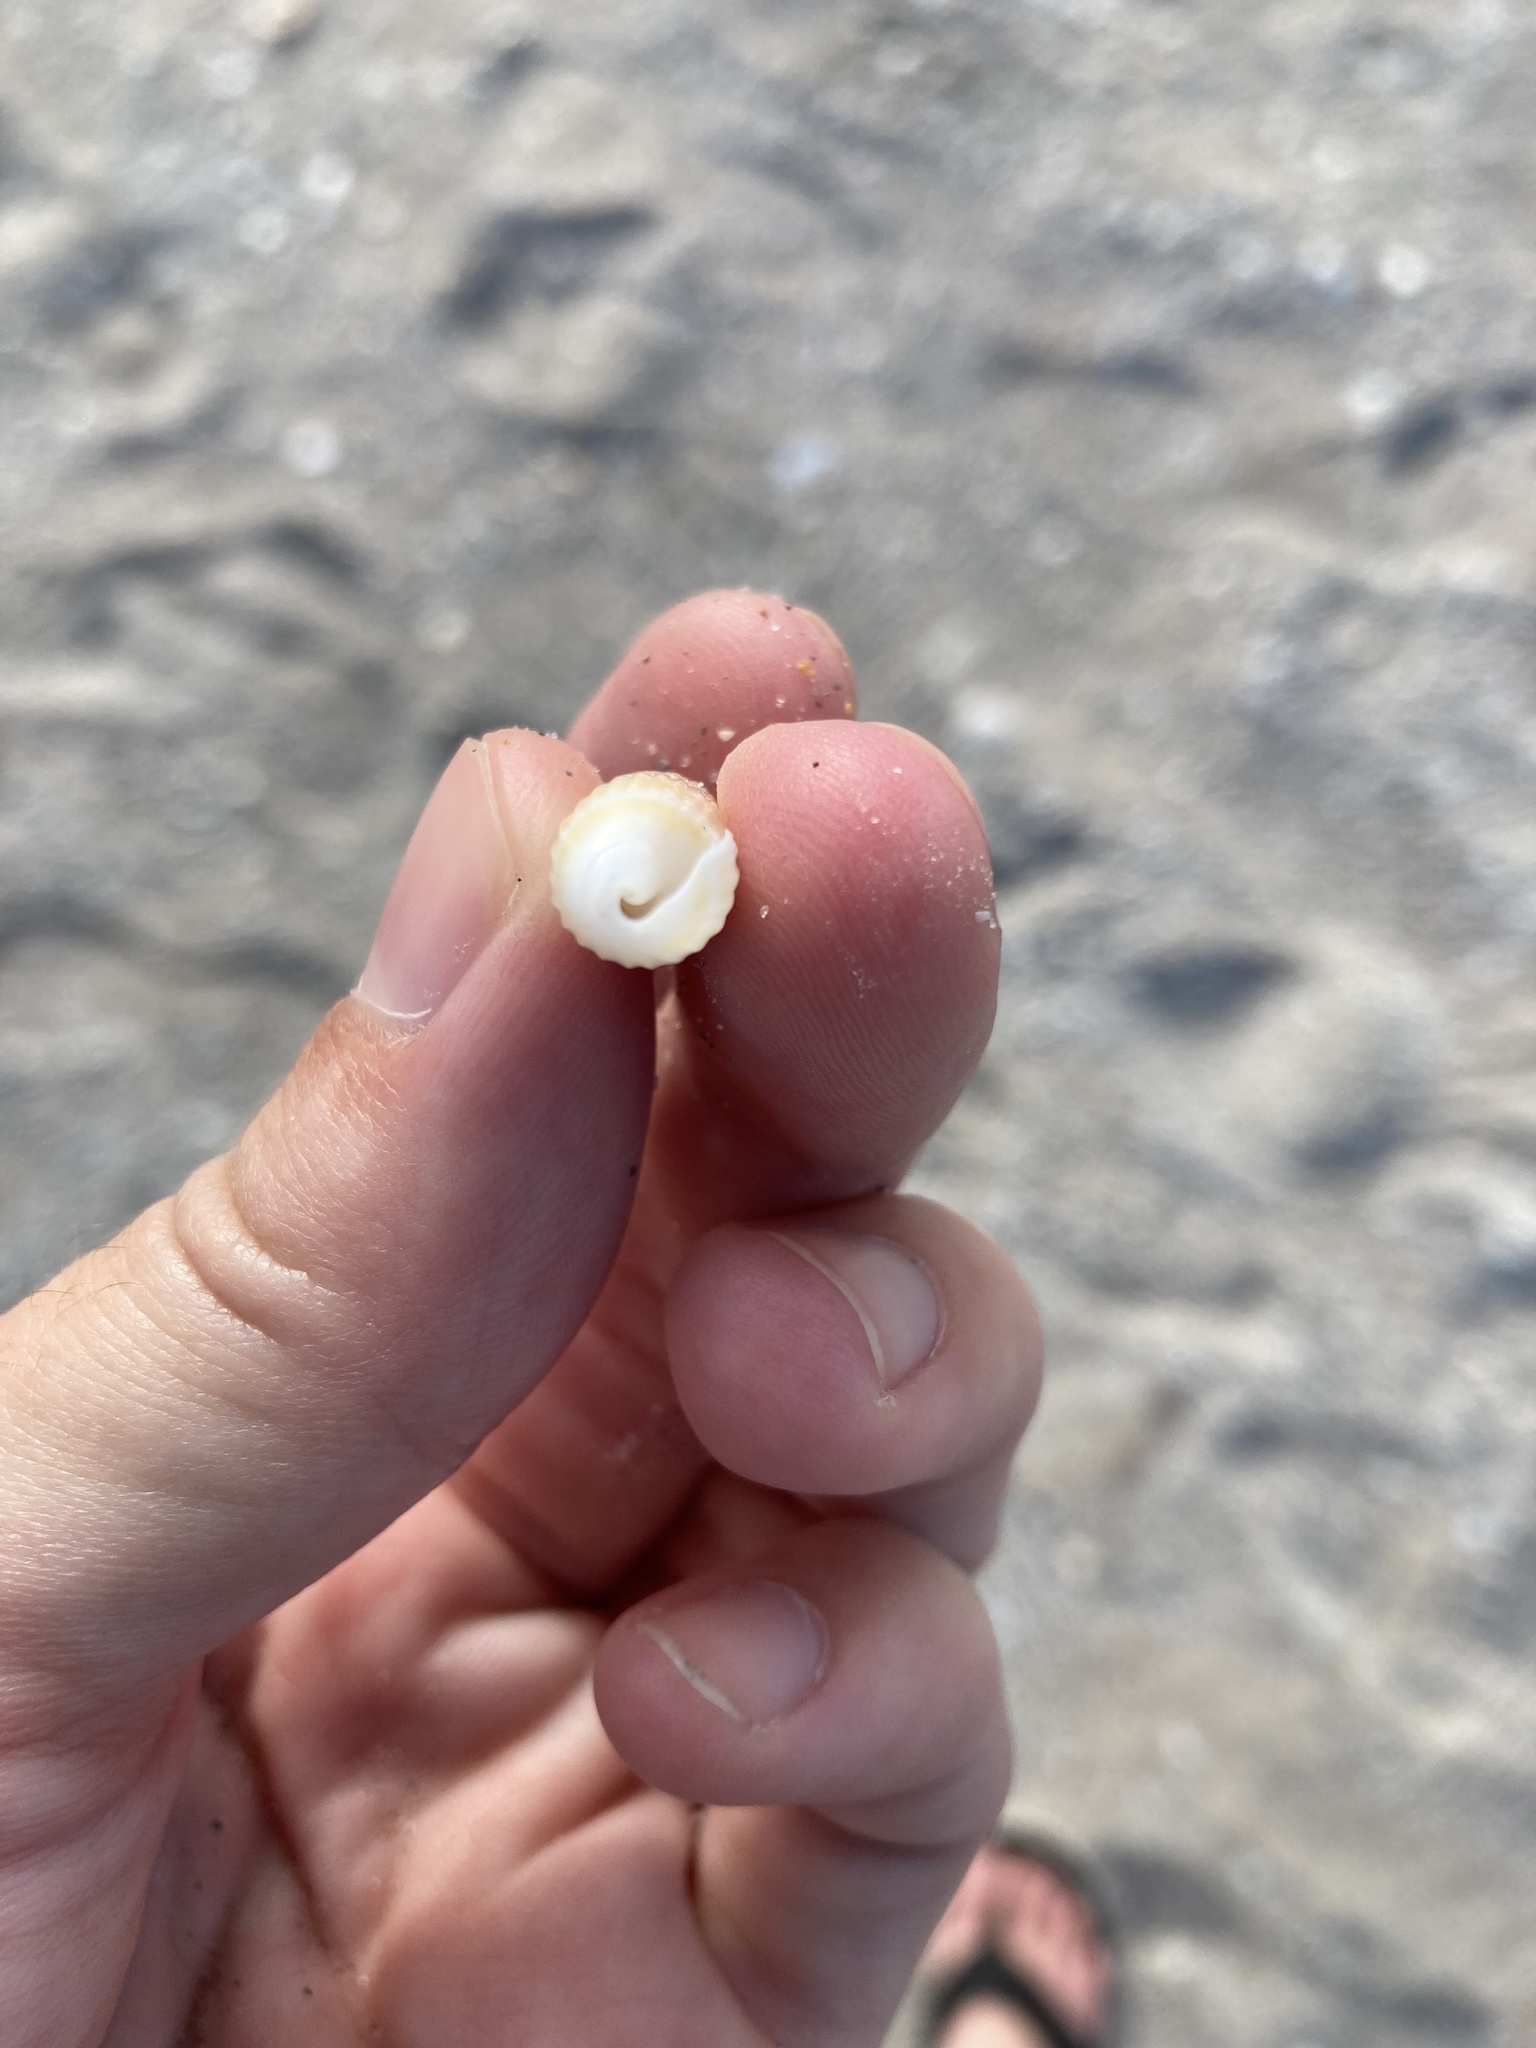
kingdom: Animalia
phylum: Mollusca
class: Gastropoda
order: Neogastropoda
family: Terebridae
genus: Hastula
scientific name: Hastula hastata
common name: Shiny auger
